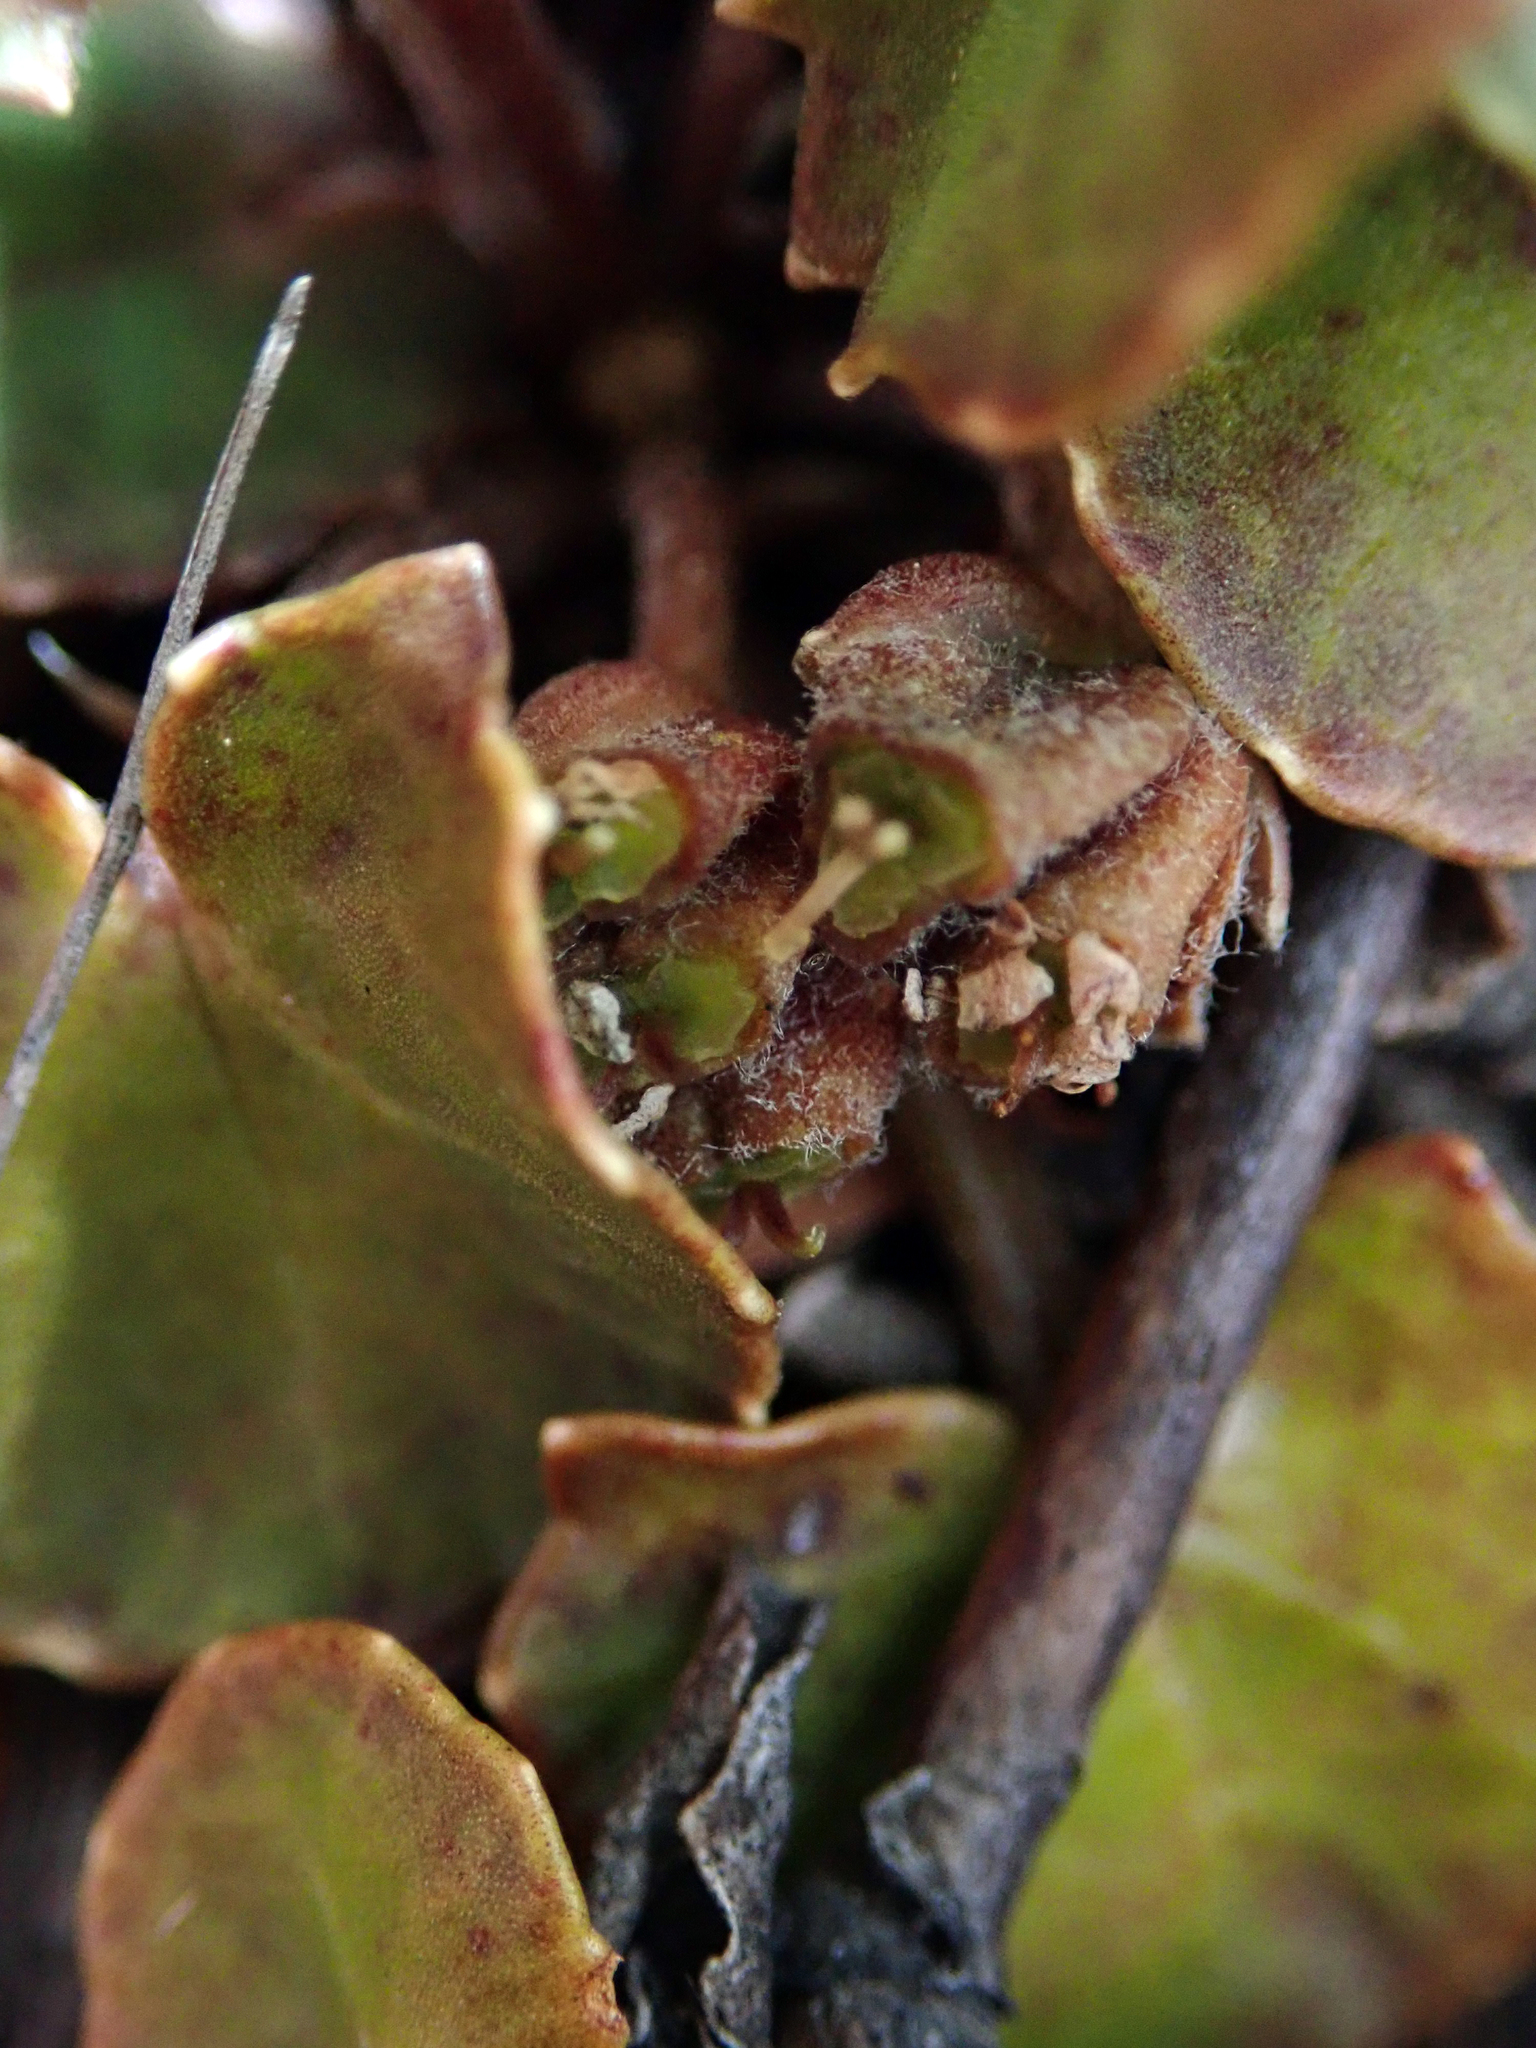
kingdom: Plantae
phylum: Tracheophyta
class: Magnoliopsida
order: Apiales
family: Apiaceae
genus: Centella
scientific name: Centella uniflora
